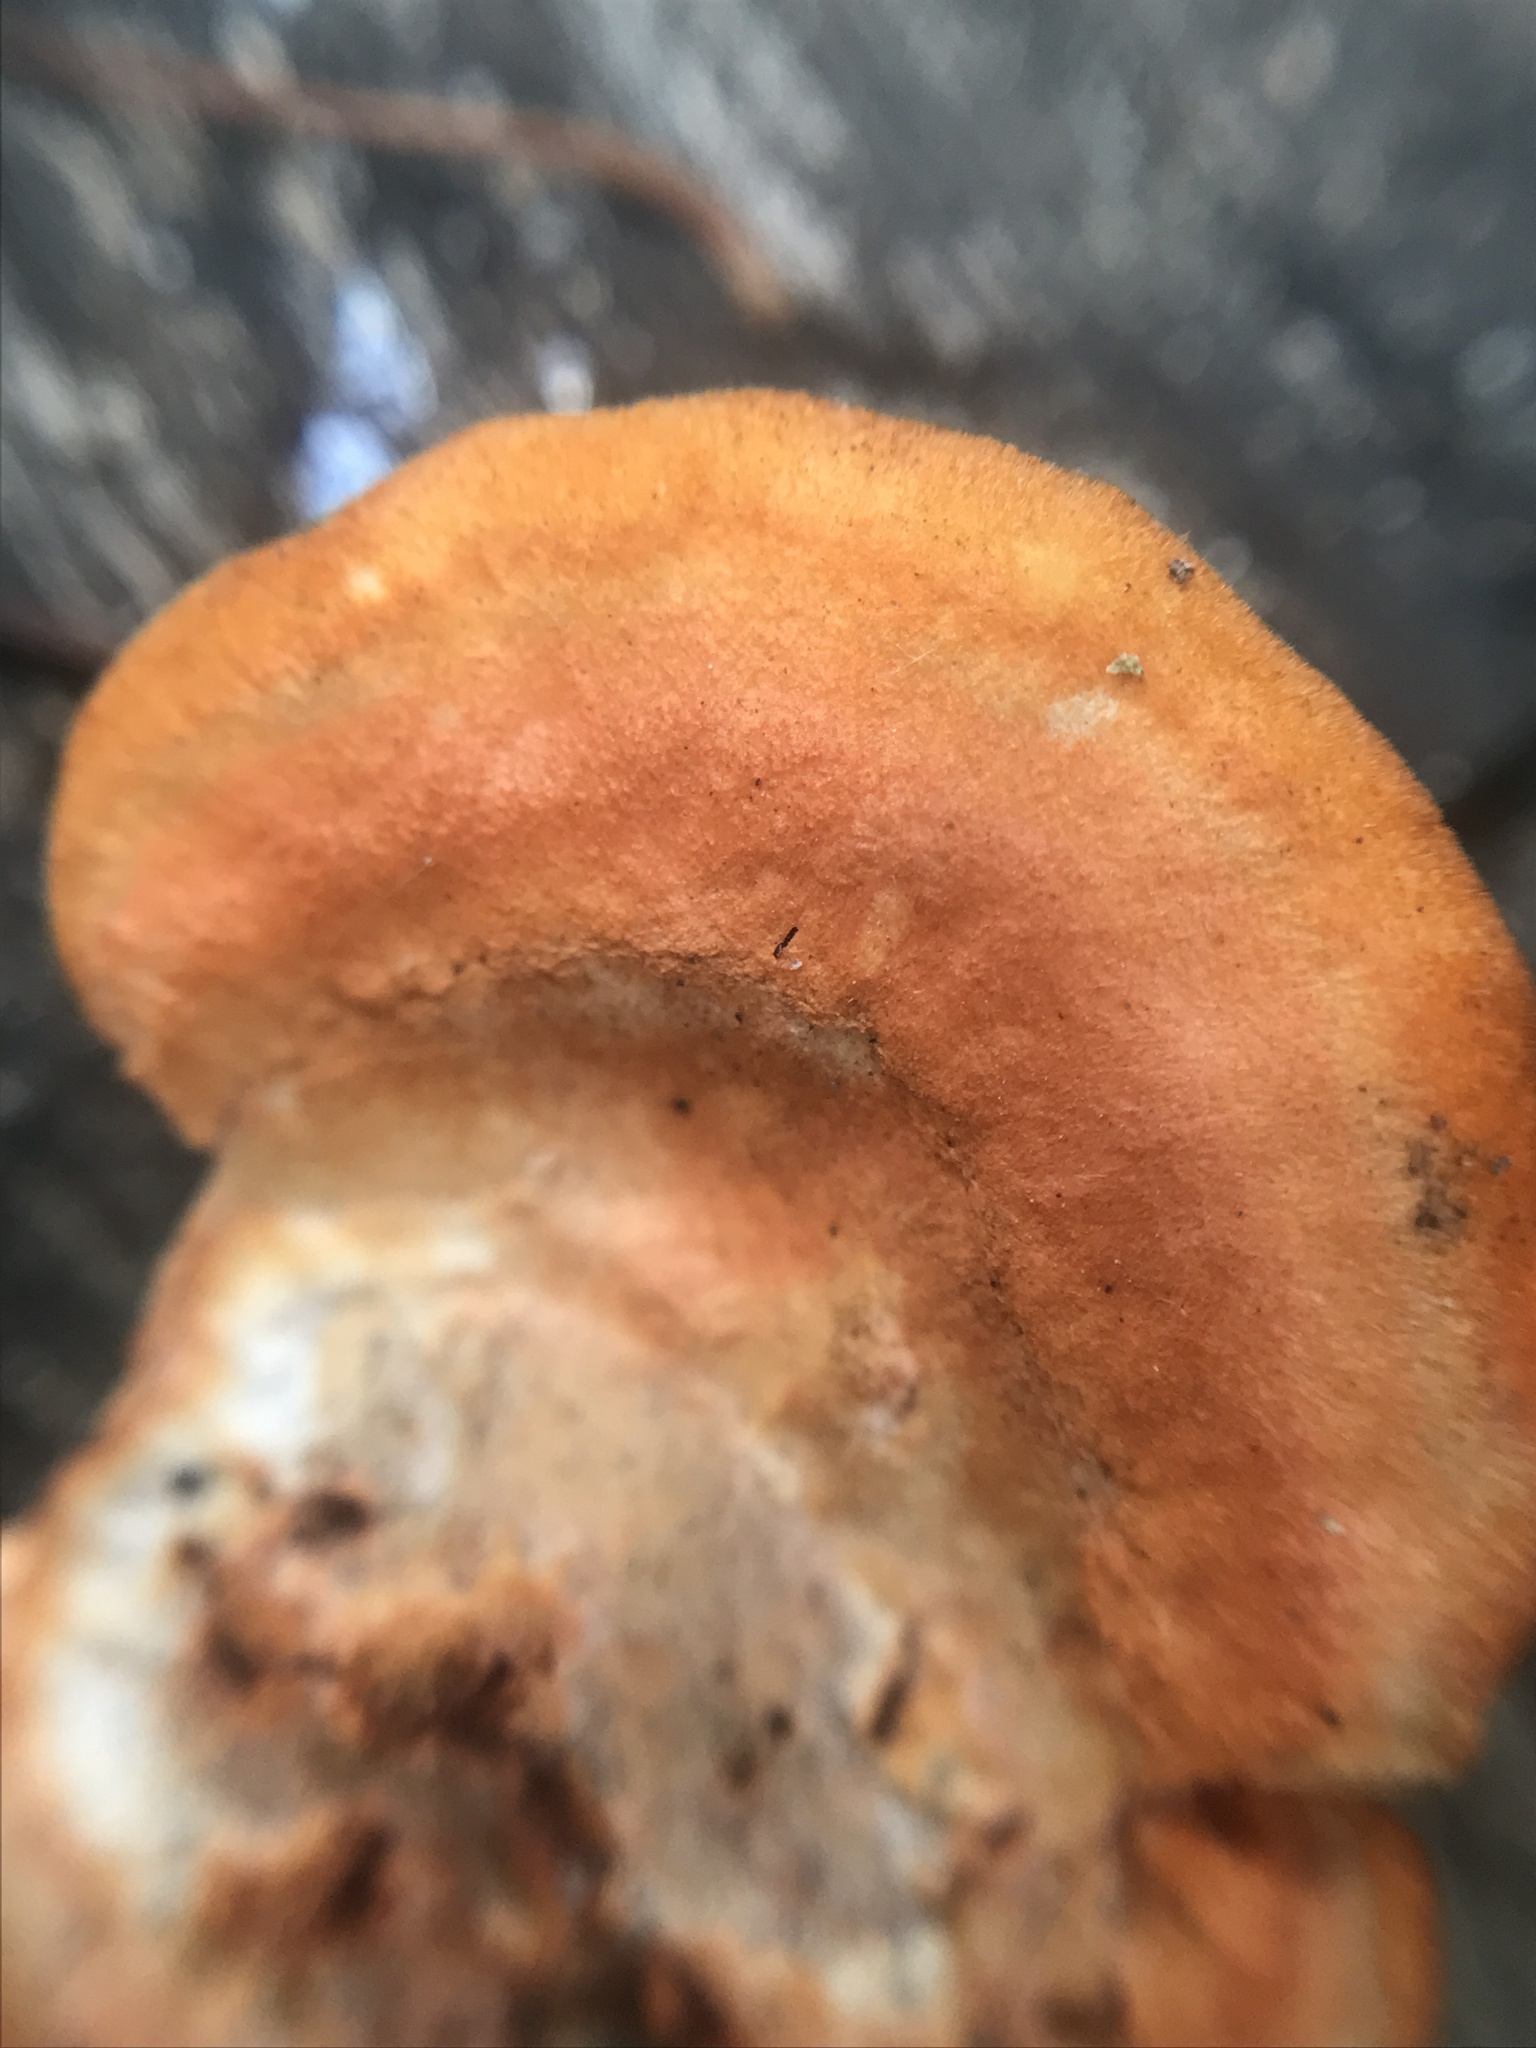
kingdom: Fungi
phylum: Basidiomycota
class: Agaricomycetes
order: Polyporales
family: Polyporaceae
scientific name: Polyporaceae
